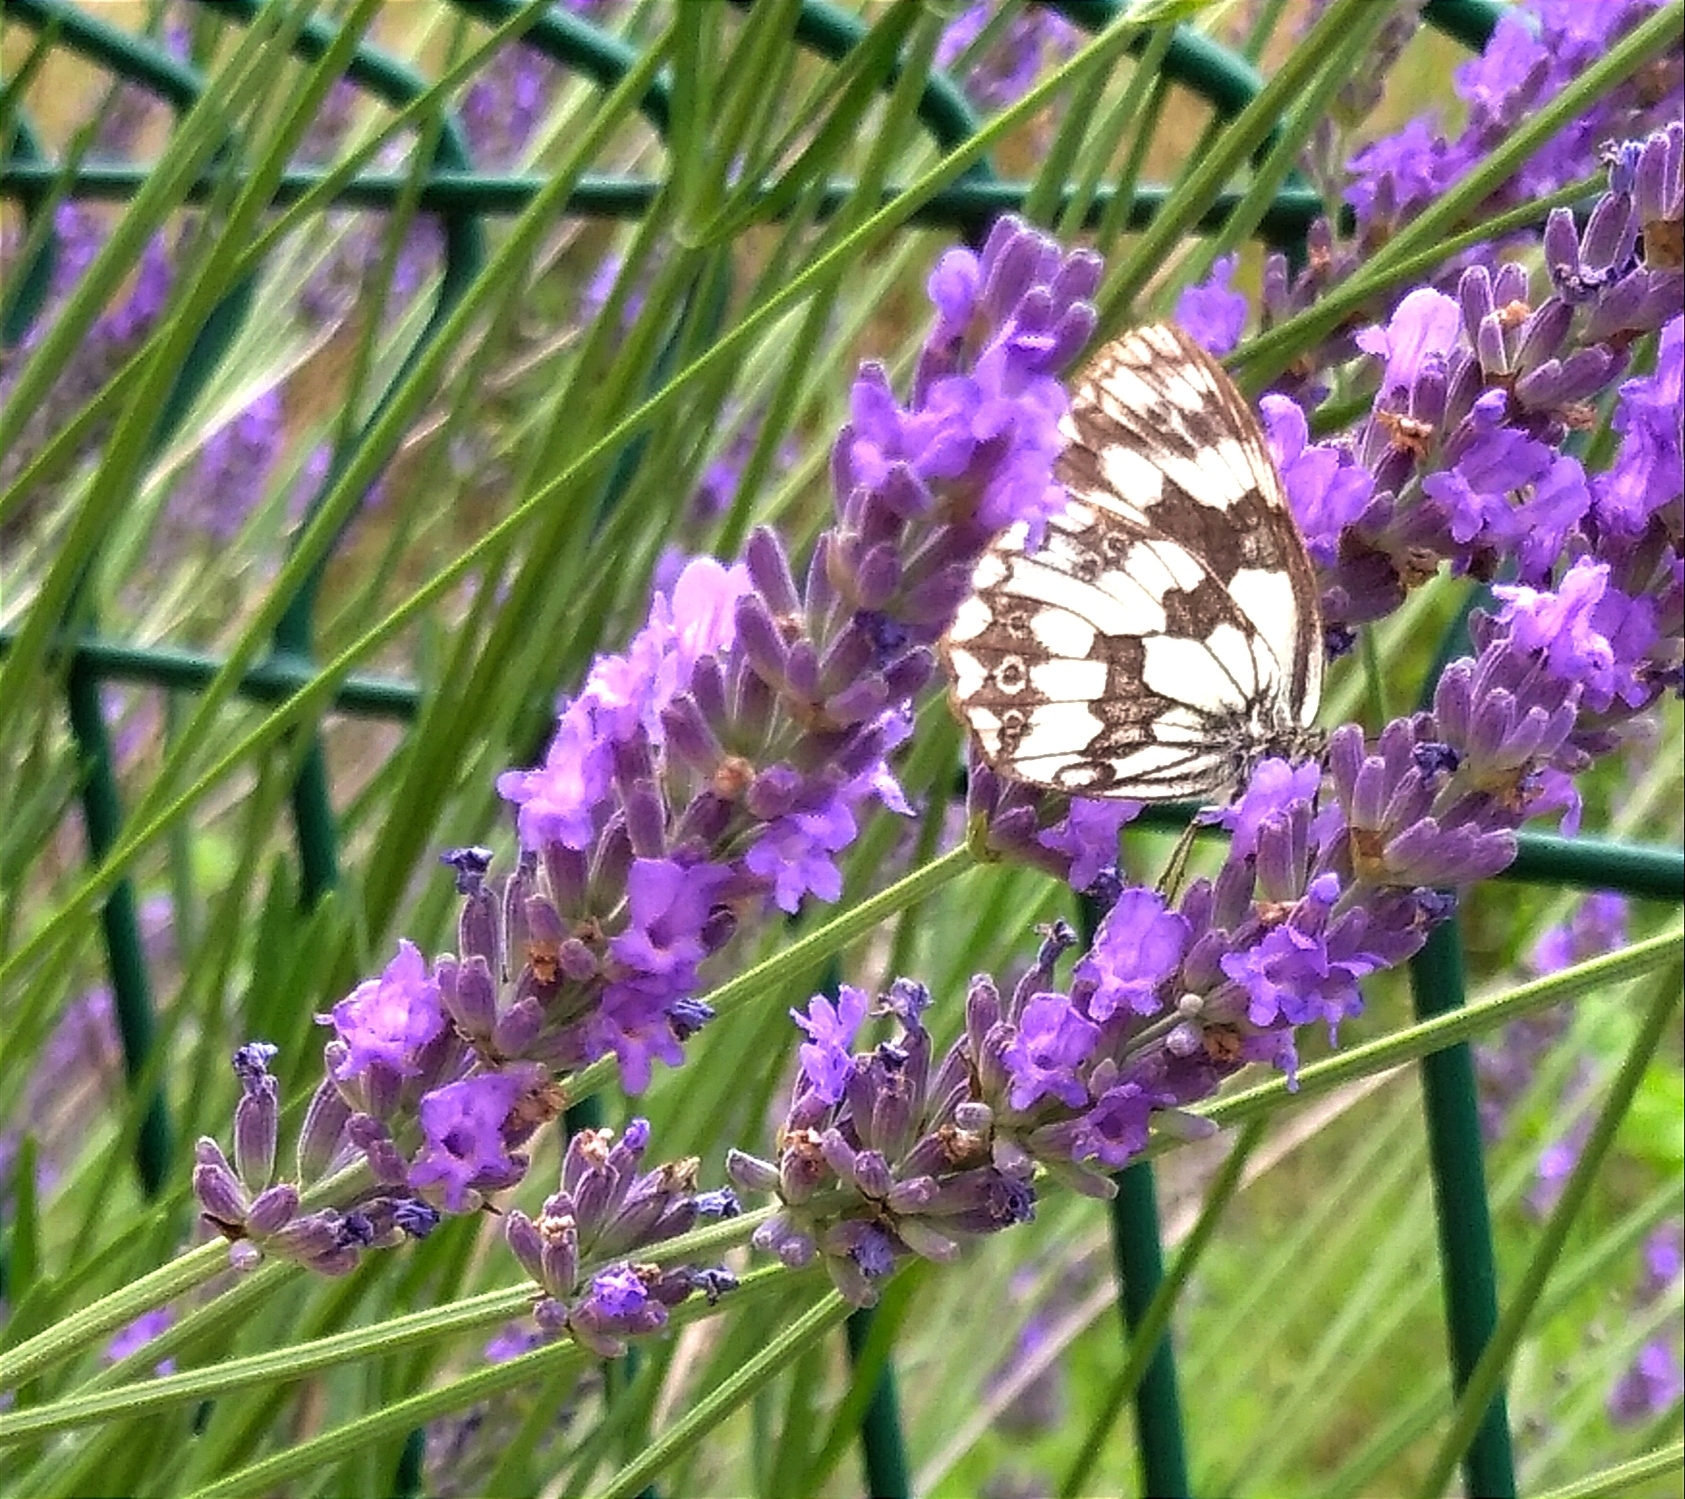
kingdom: Animalia
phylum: Arthropoda
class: Insecta
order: Lepidoptera
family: Nymphalidae
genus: Melanargia
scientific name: Melanargia galathea
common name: Marbled white
